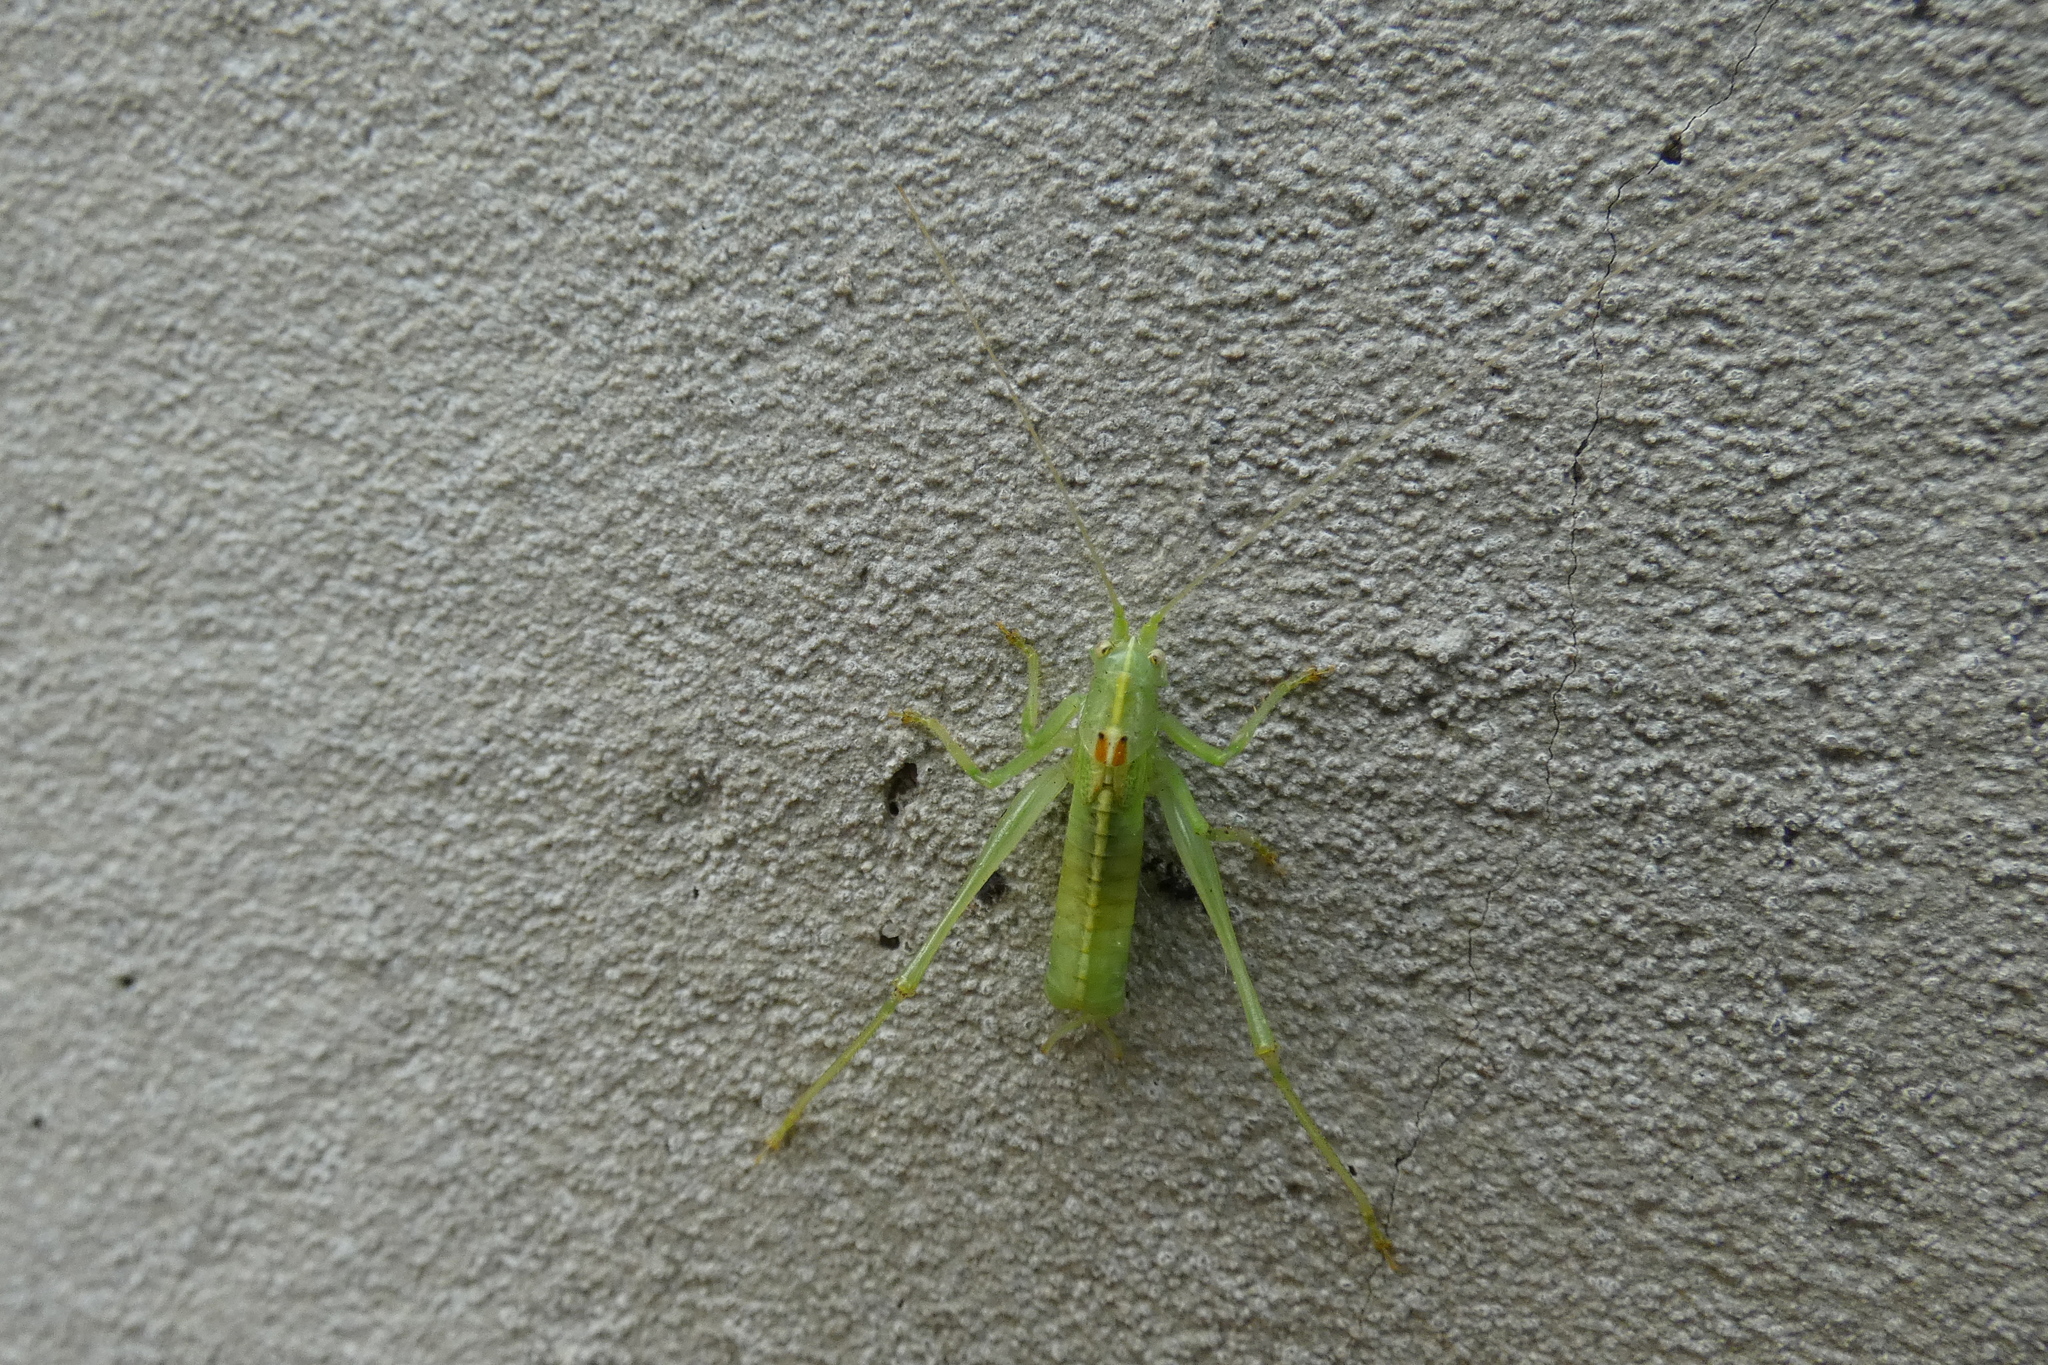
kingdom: Animalia
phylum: Arthropoda
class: Insecta
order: Orthoptera
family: Tettigoniidae
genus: Meconema
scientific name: Meconema meridionale
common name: Southern oak bush-cricket
